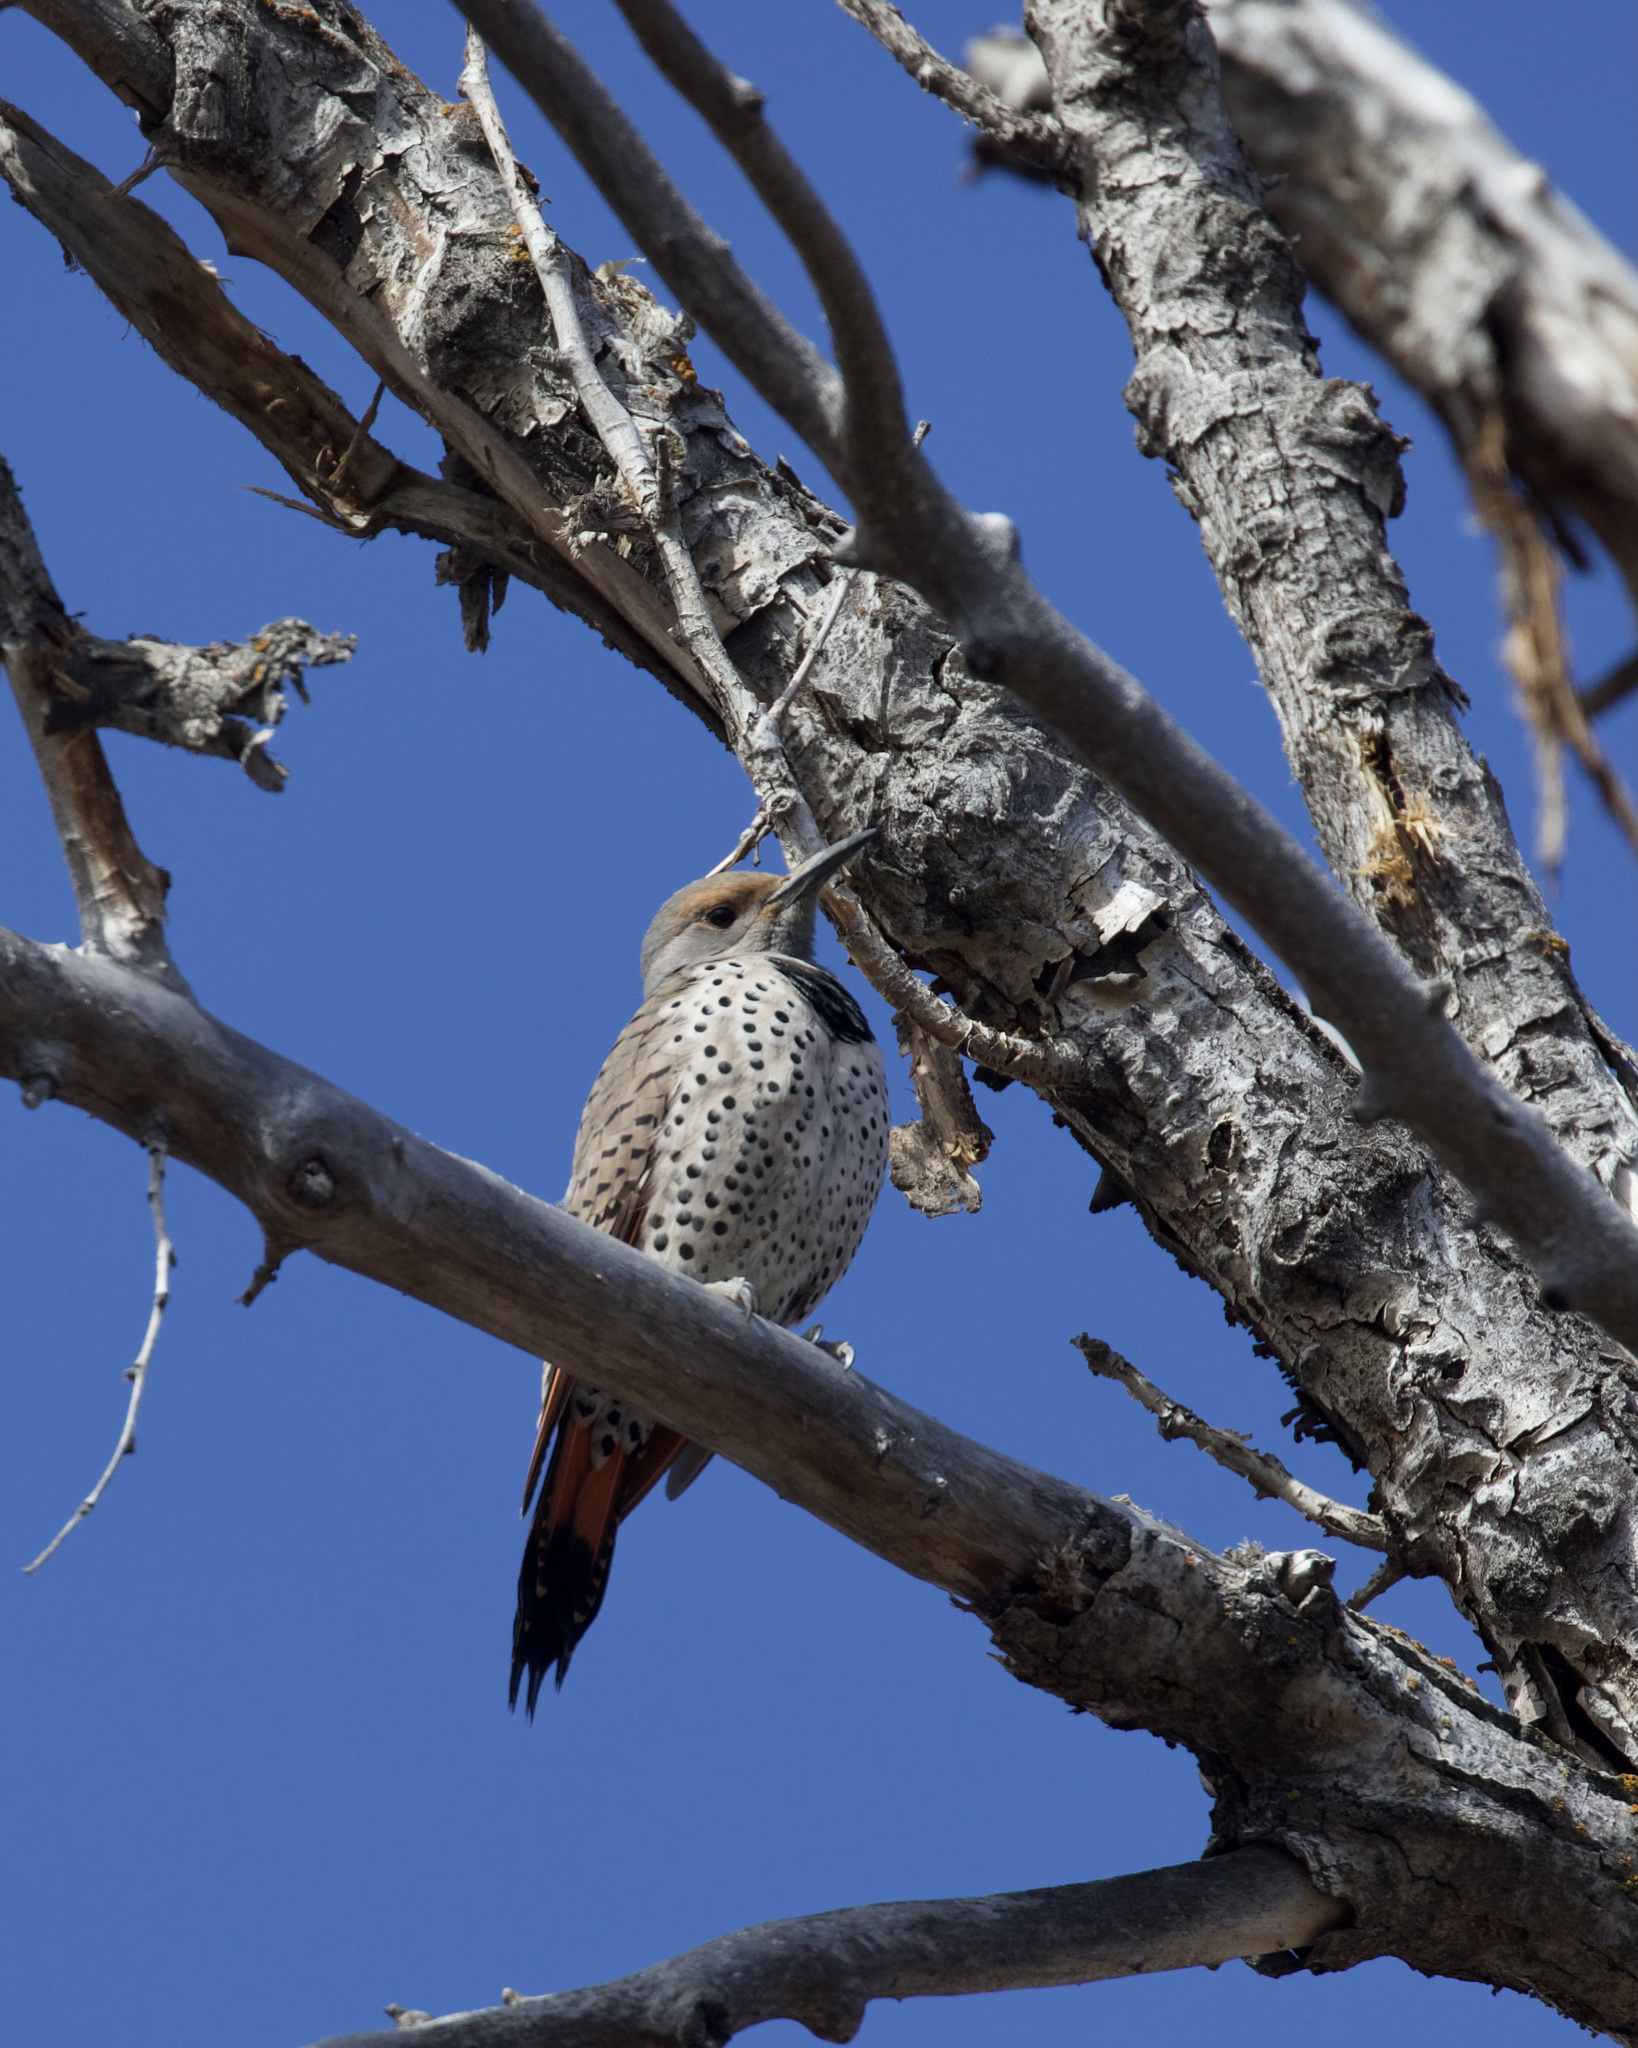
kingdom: Animalia
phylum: Chordata
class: Aves
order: Piciformes
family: Picidae
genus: Colaptes
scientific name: Colaptes auratus
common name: Northern flicker
